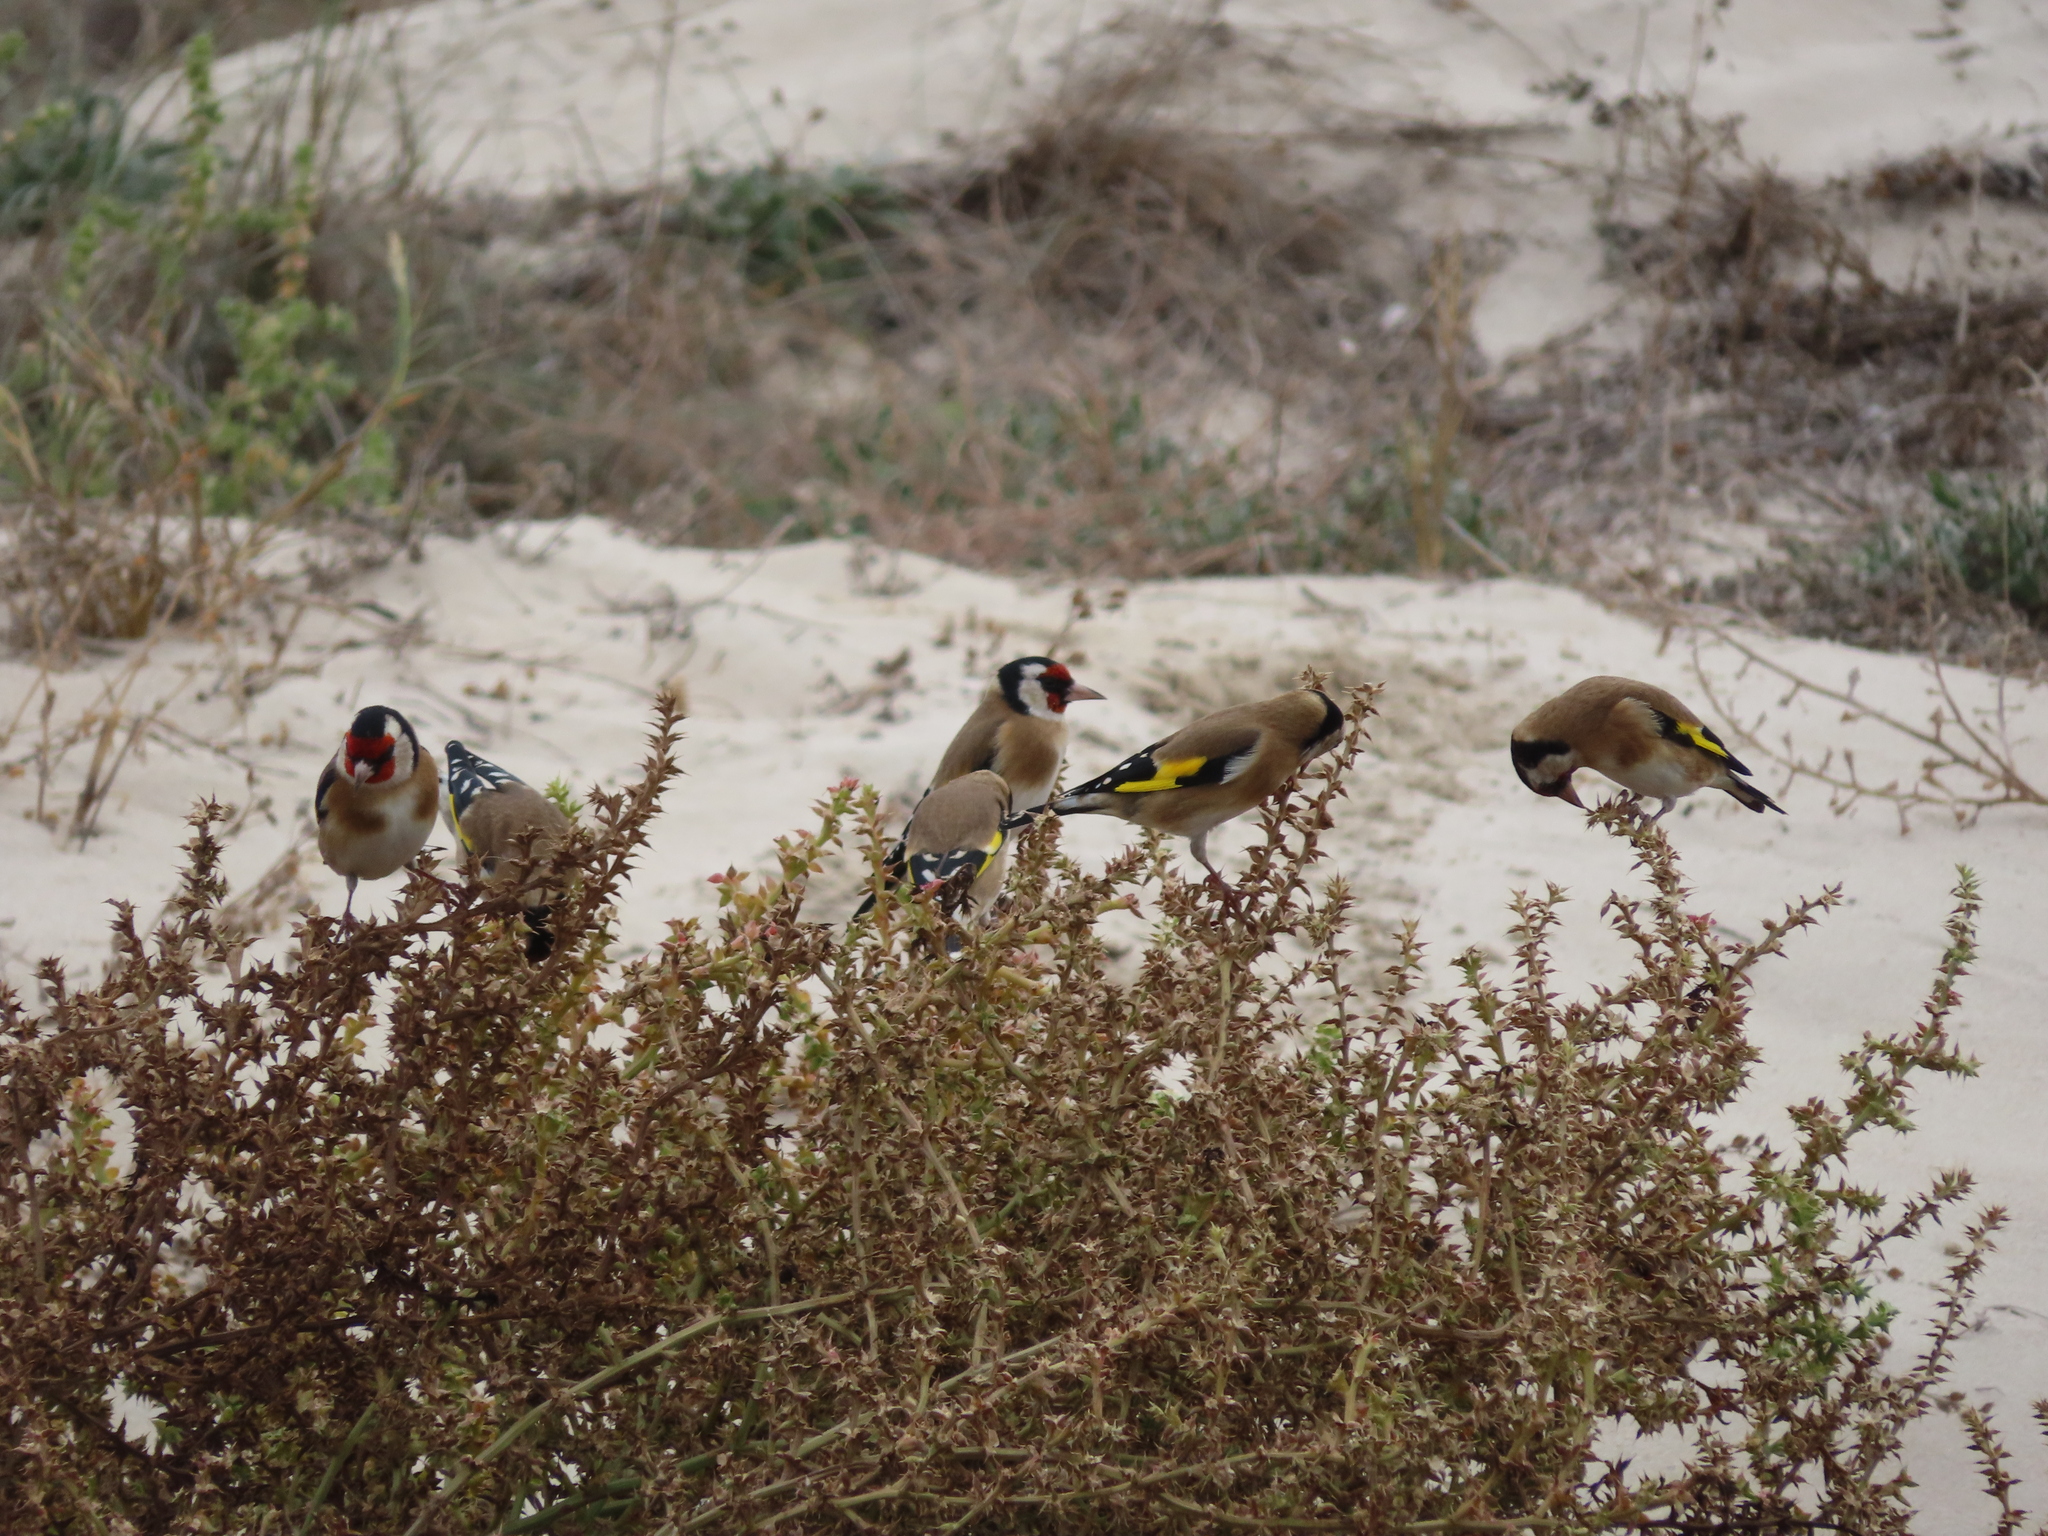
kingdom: Animalia
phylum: Chordata
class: Aves
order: Passeriformes
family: Fringillidae
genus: Carduelis
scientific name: Carduelis carduelis
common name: European goldfinch
